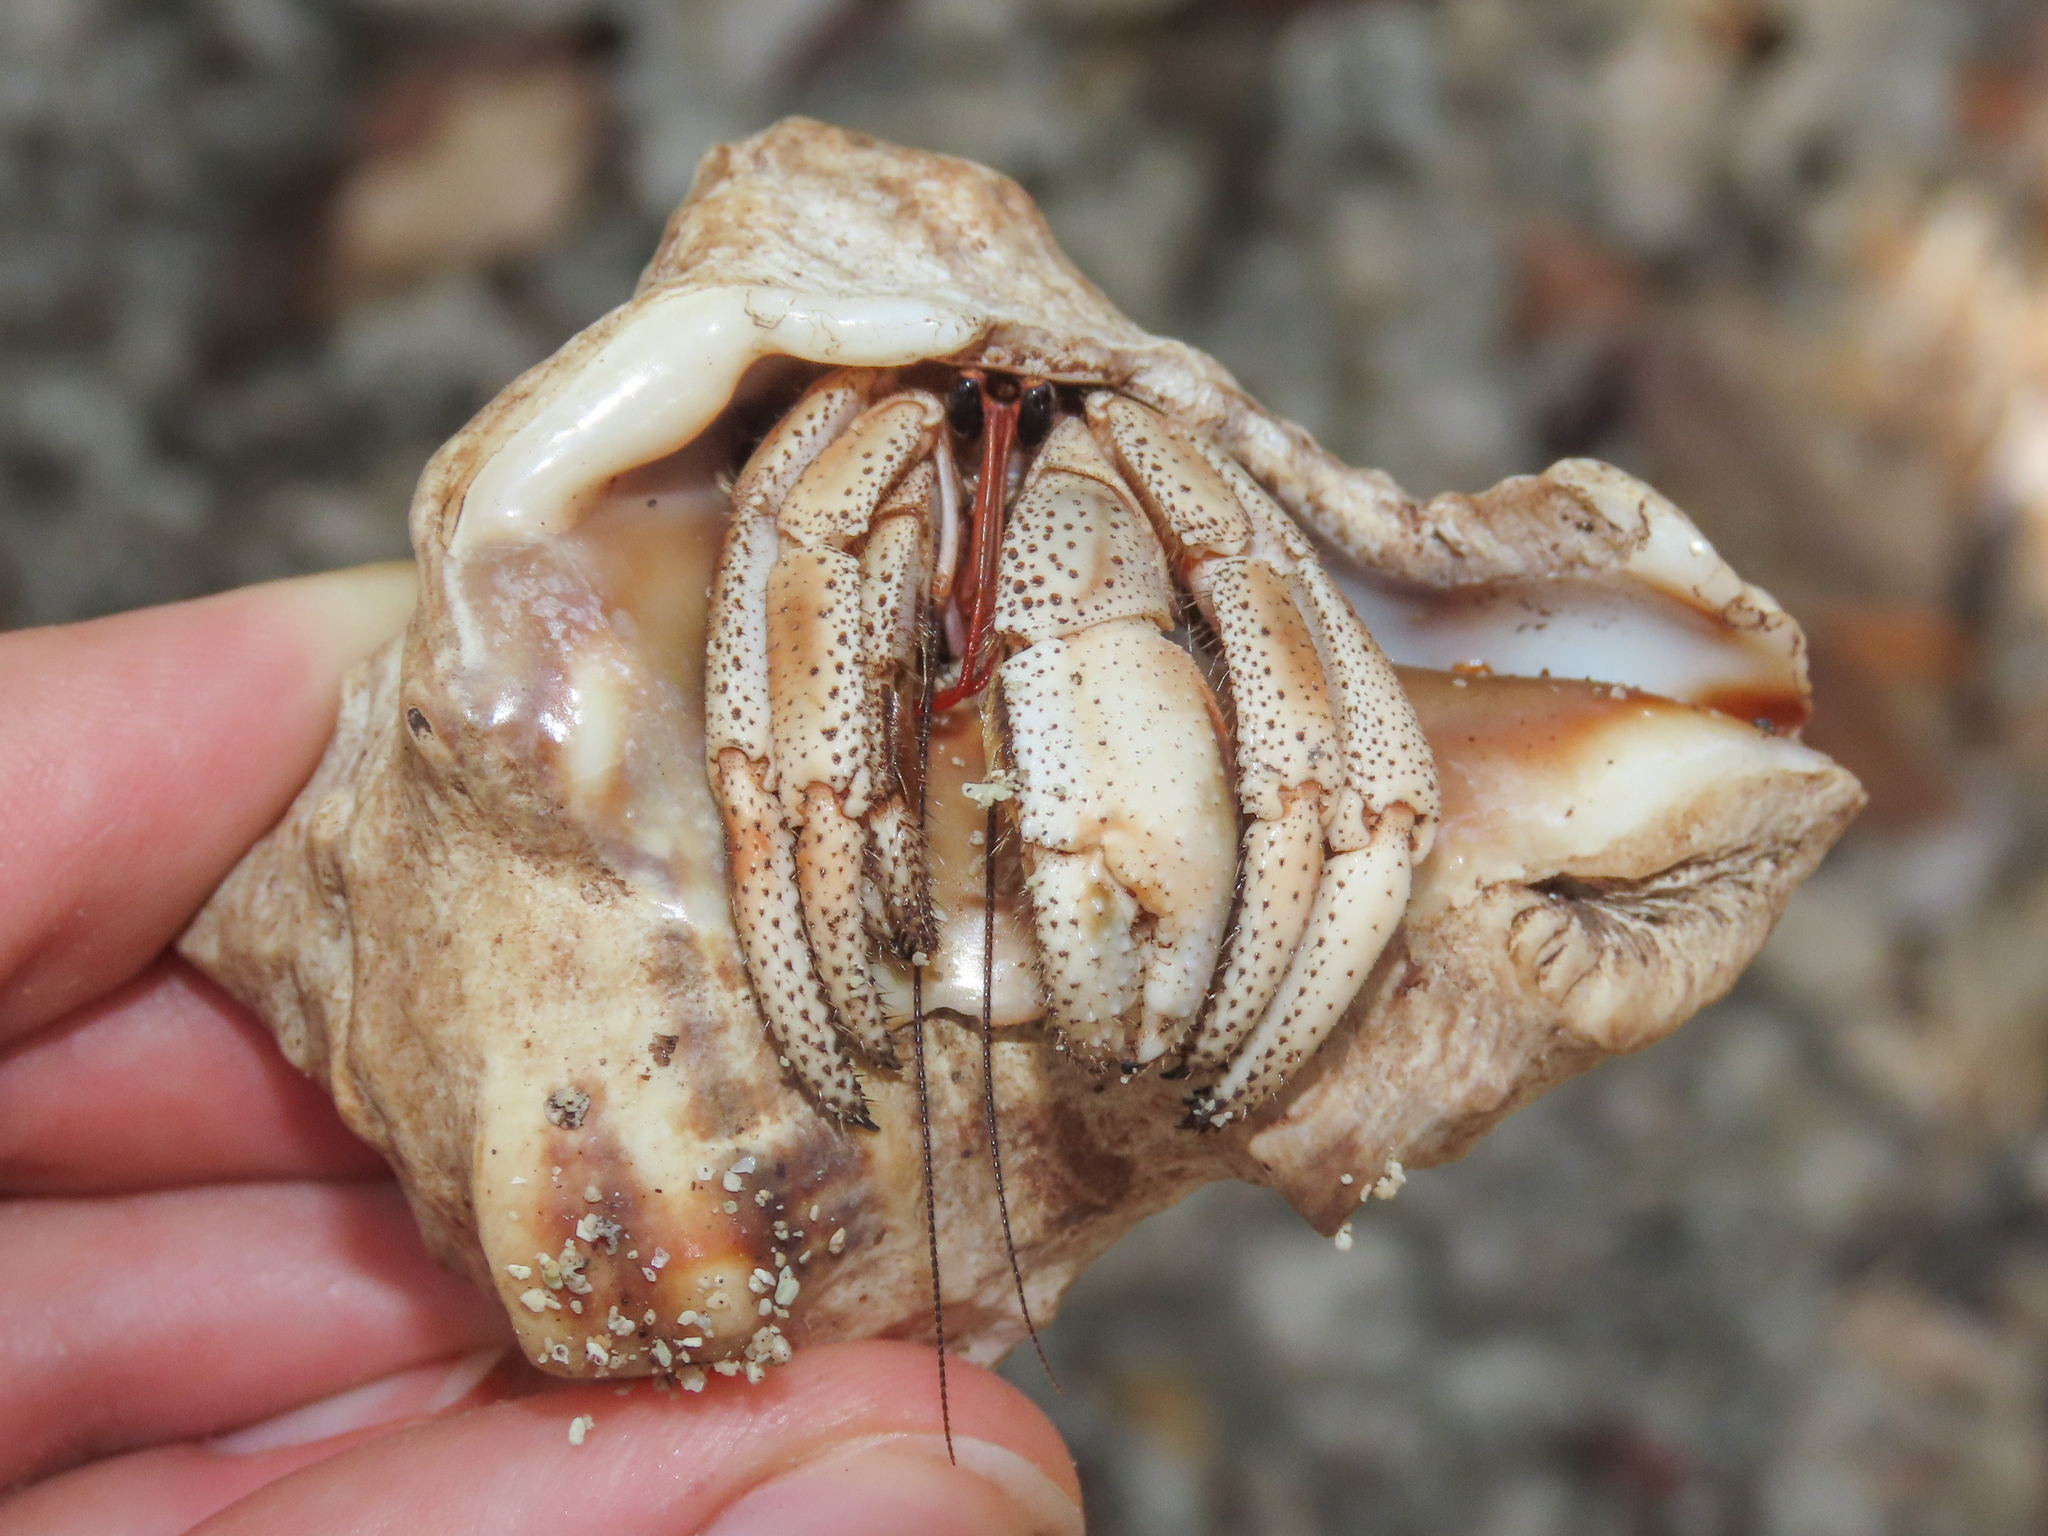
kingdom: Animalia
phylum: Arthropoda
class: Malacostraca
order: Decapoda
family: Coenobitidae
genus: Coenobita
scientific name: Coenobita violascens
